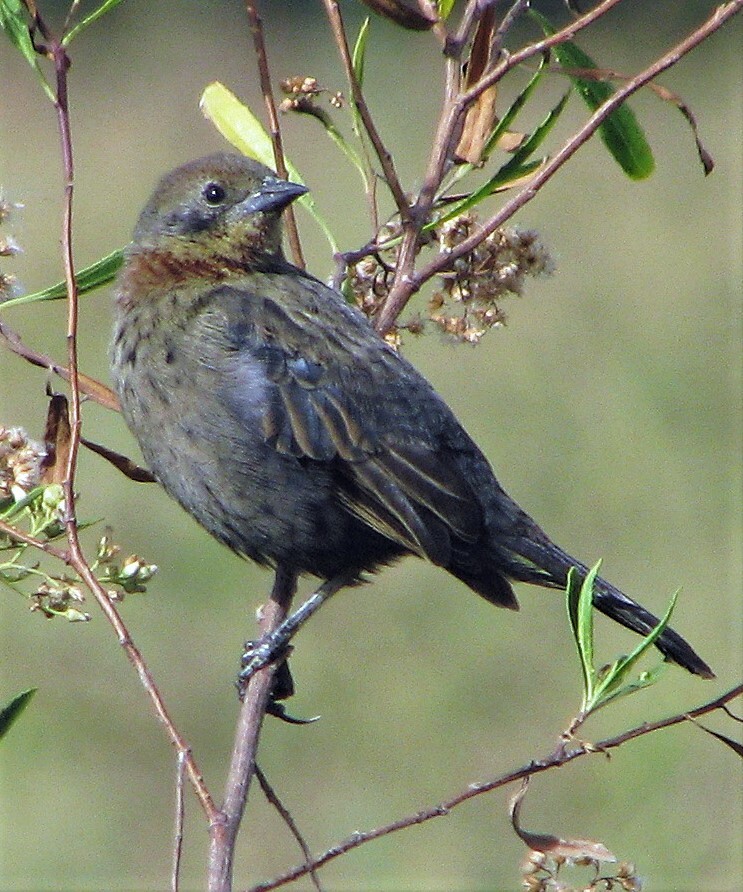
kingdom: Animalia
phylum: Chordata
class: Aves
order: Passeriformes
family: Icteridae
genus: Chrysomus
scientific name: Chrysomus ruficapillus
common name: Chestnut-capped blackbird
